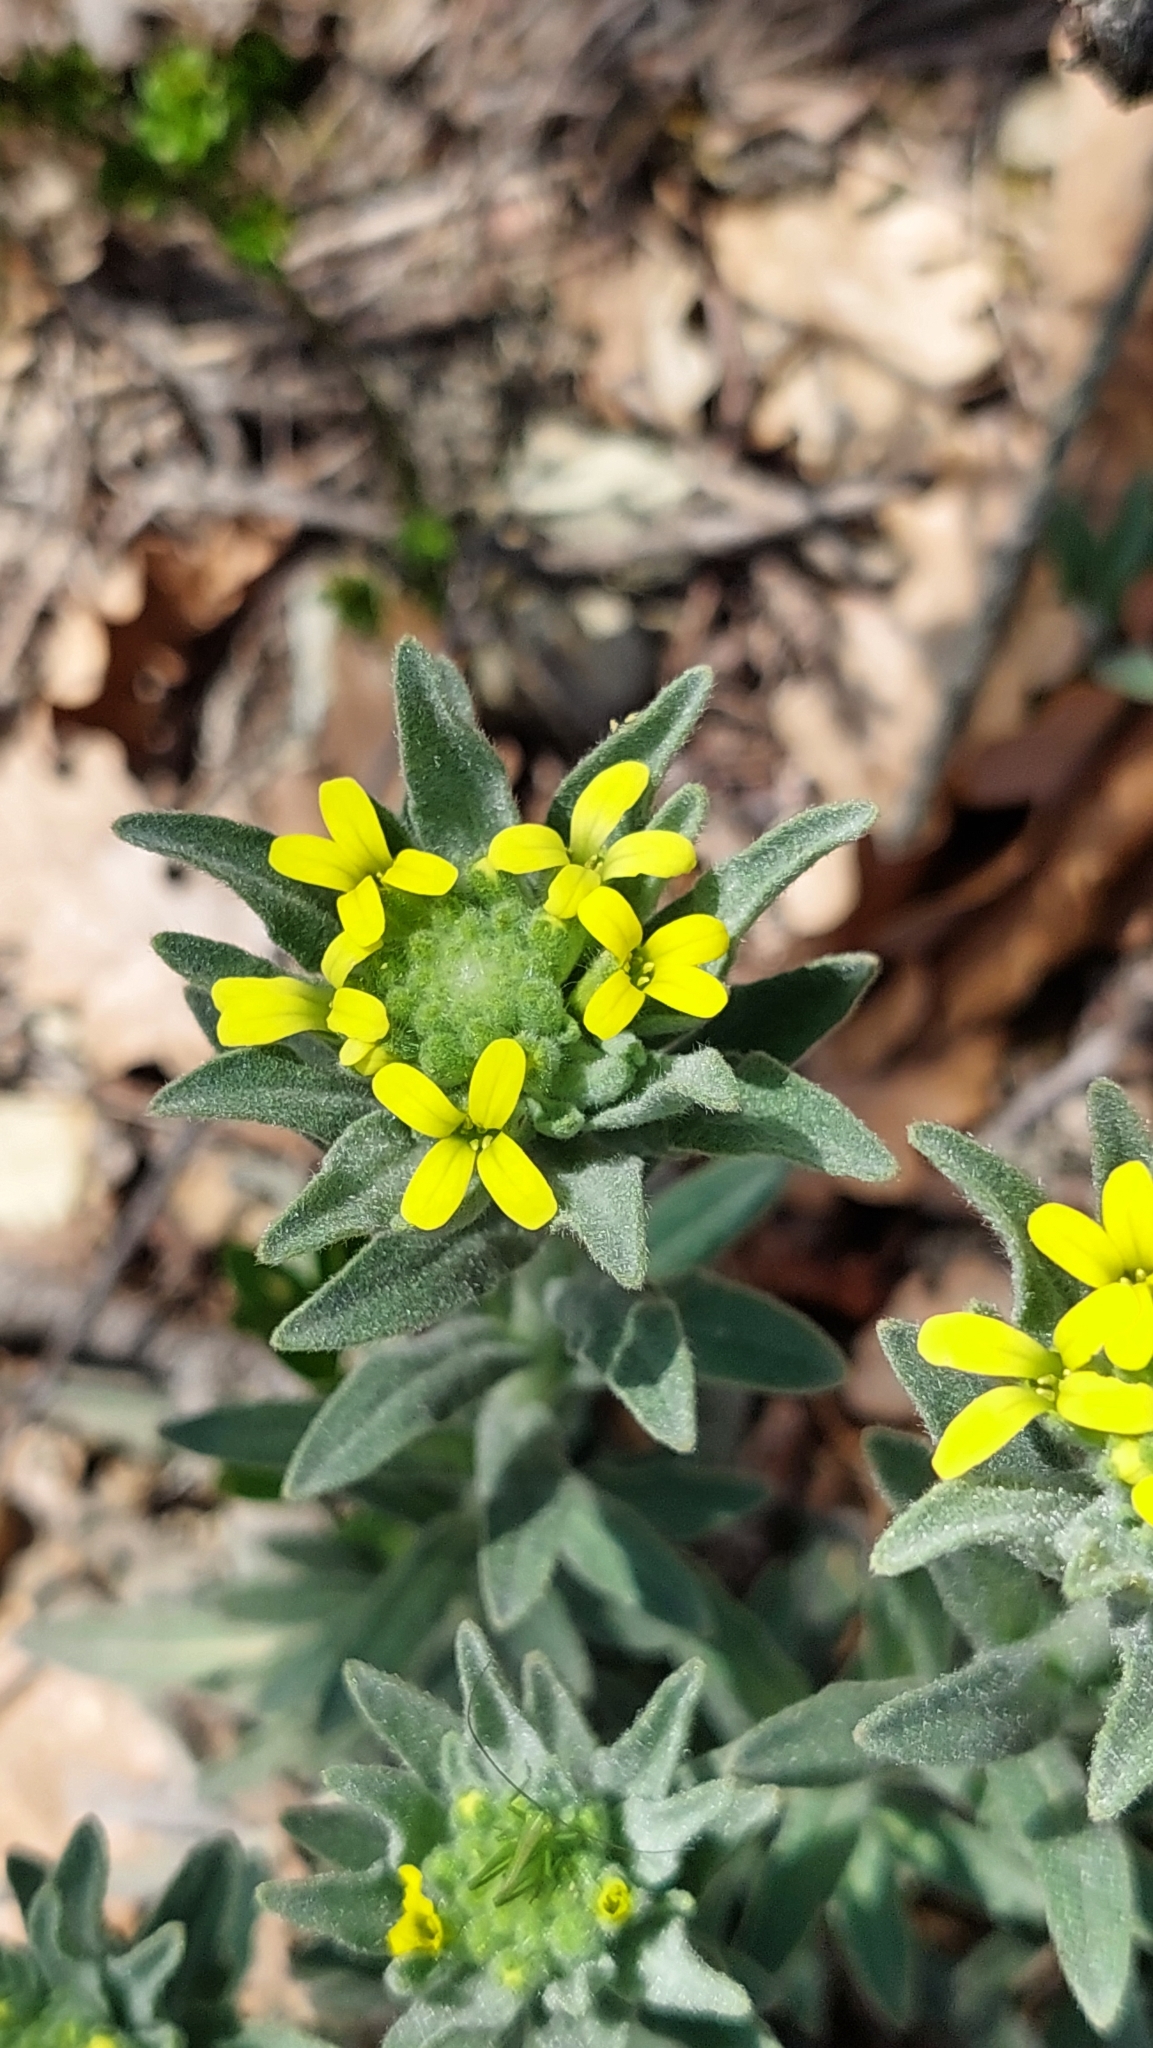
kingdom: Plantae
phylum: Tracheophyta
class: Magnoliopsida
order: Brassicales
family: Brassicaceae
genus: Fibigia
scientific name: Fibigia clypeata
